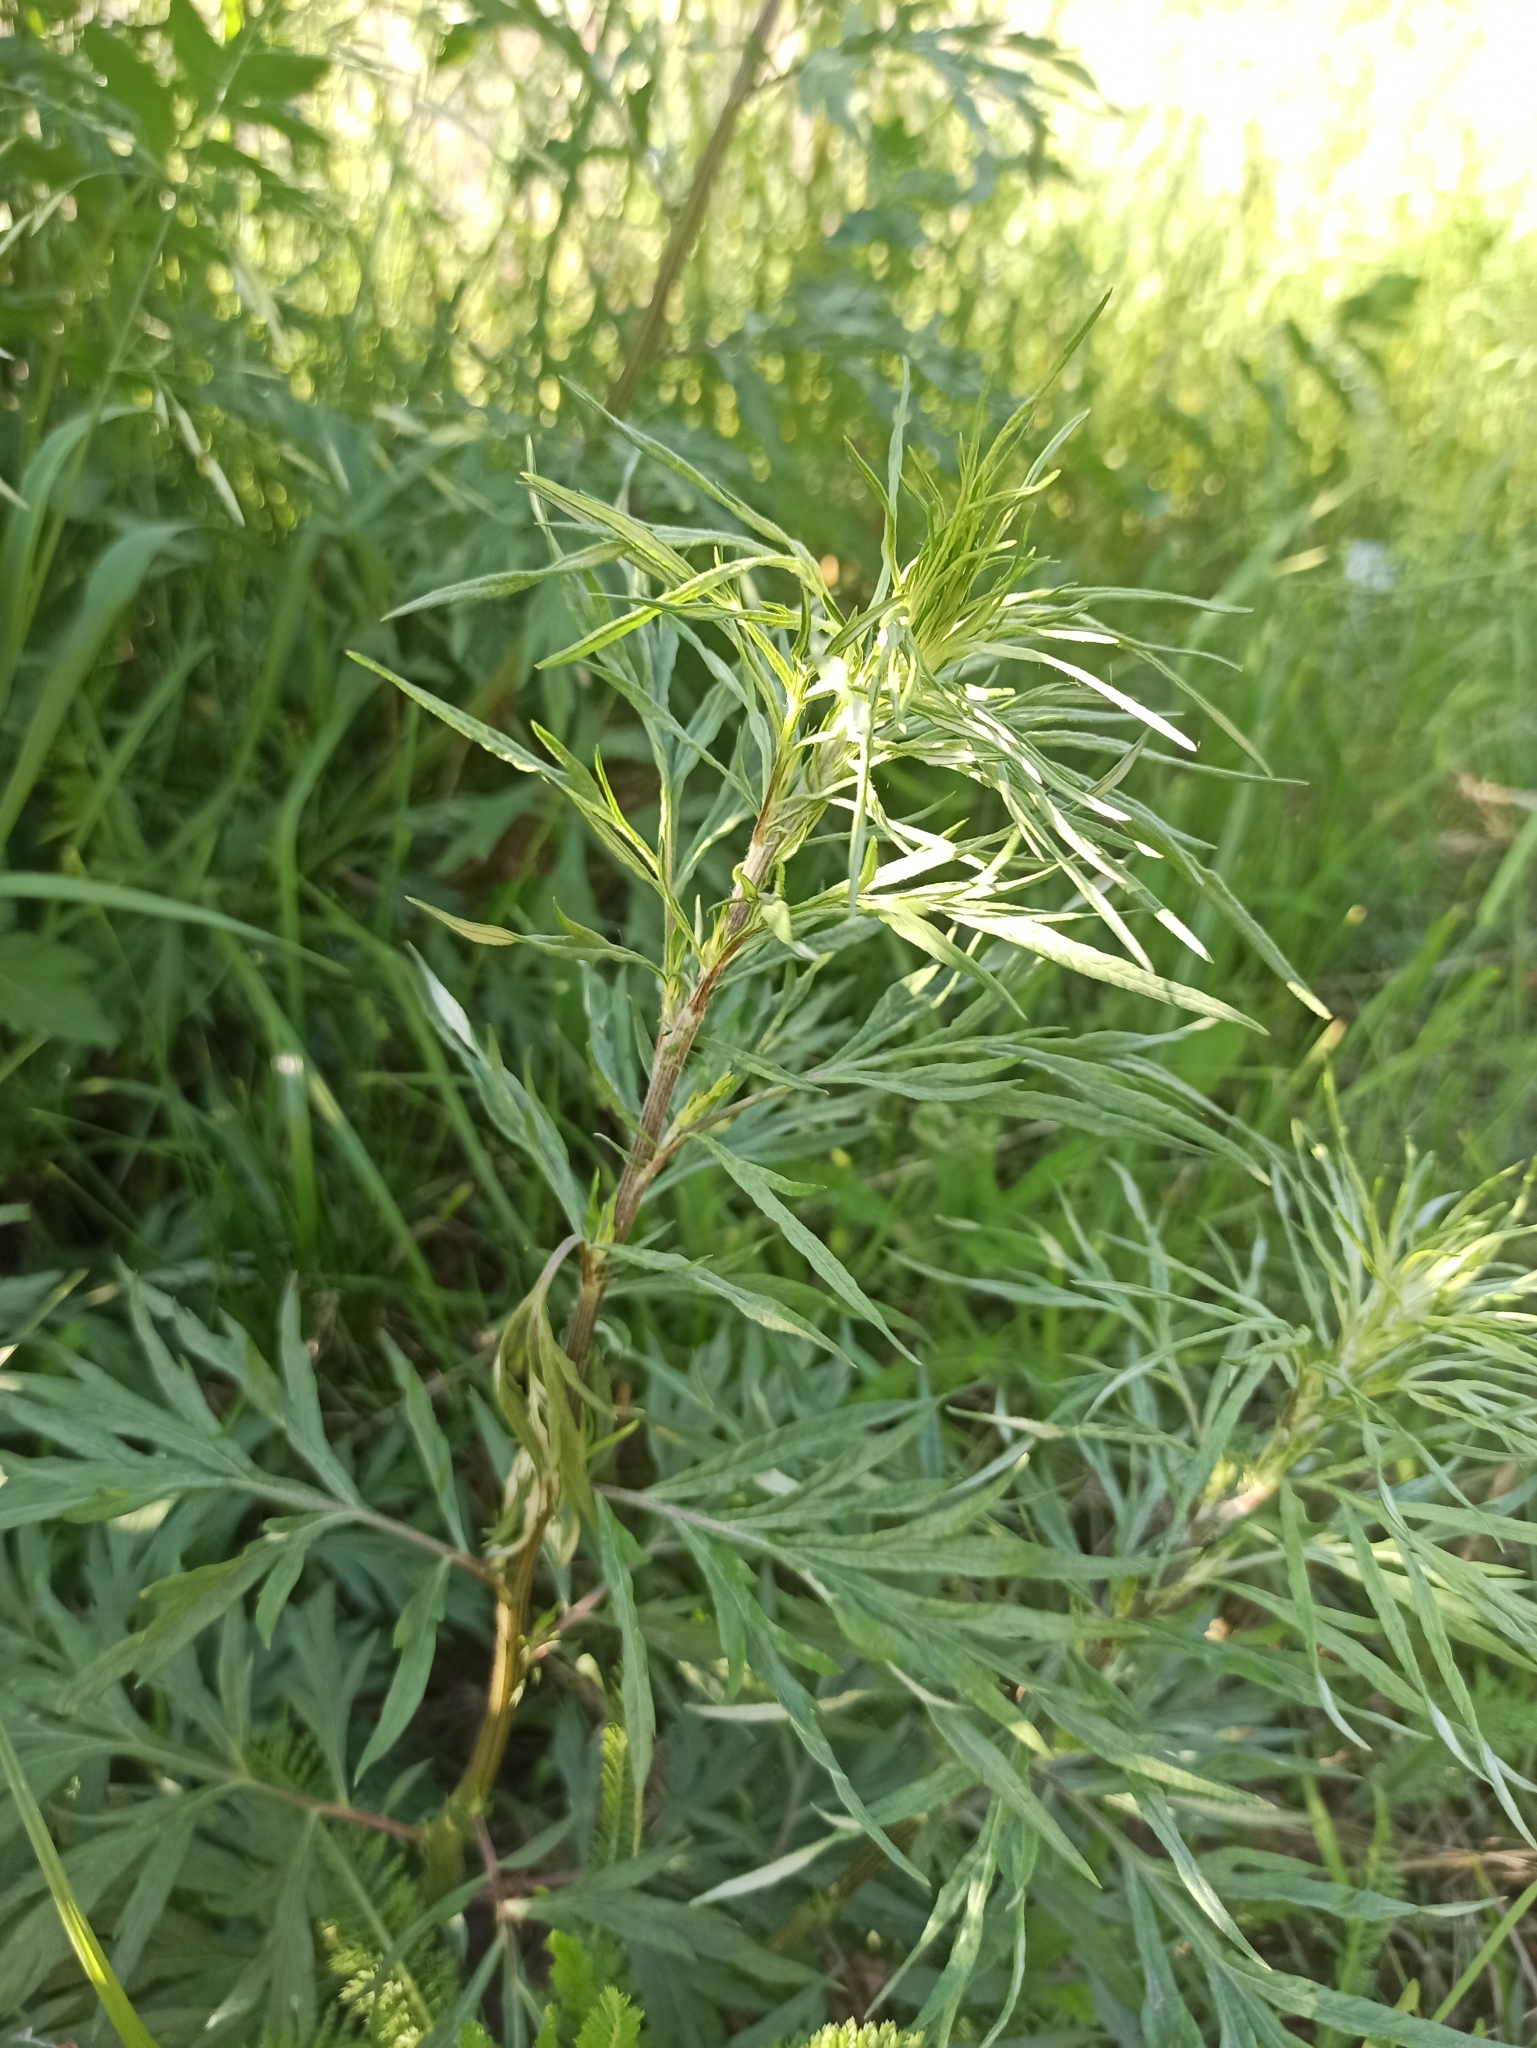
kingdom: Plantae
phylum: Tracheophyta
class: Magnoliopsida
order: Asterales
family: Asteraceae
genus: Artemisia
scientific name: Artemisia vulgaris
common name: Mugwort
